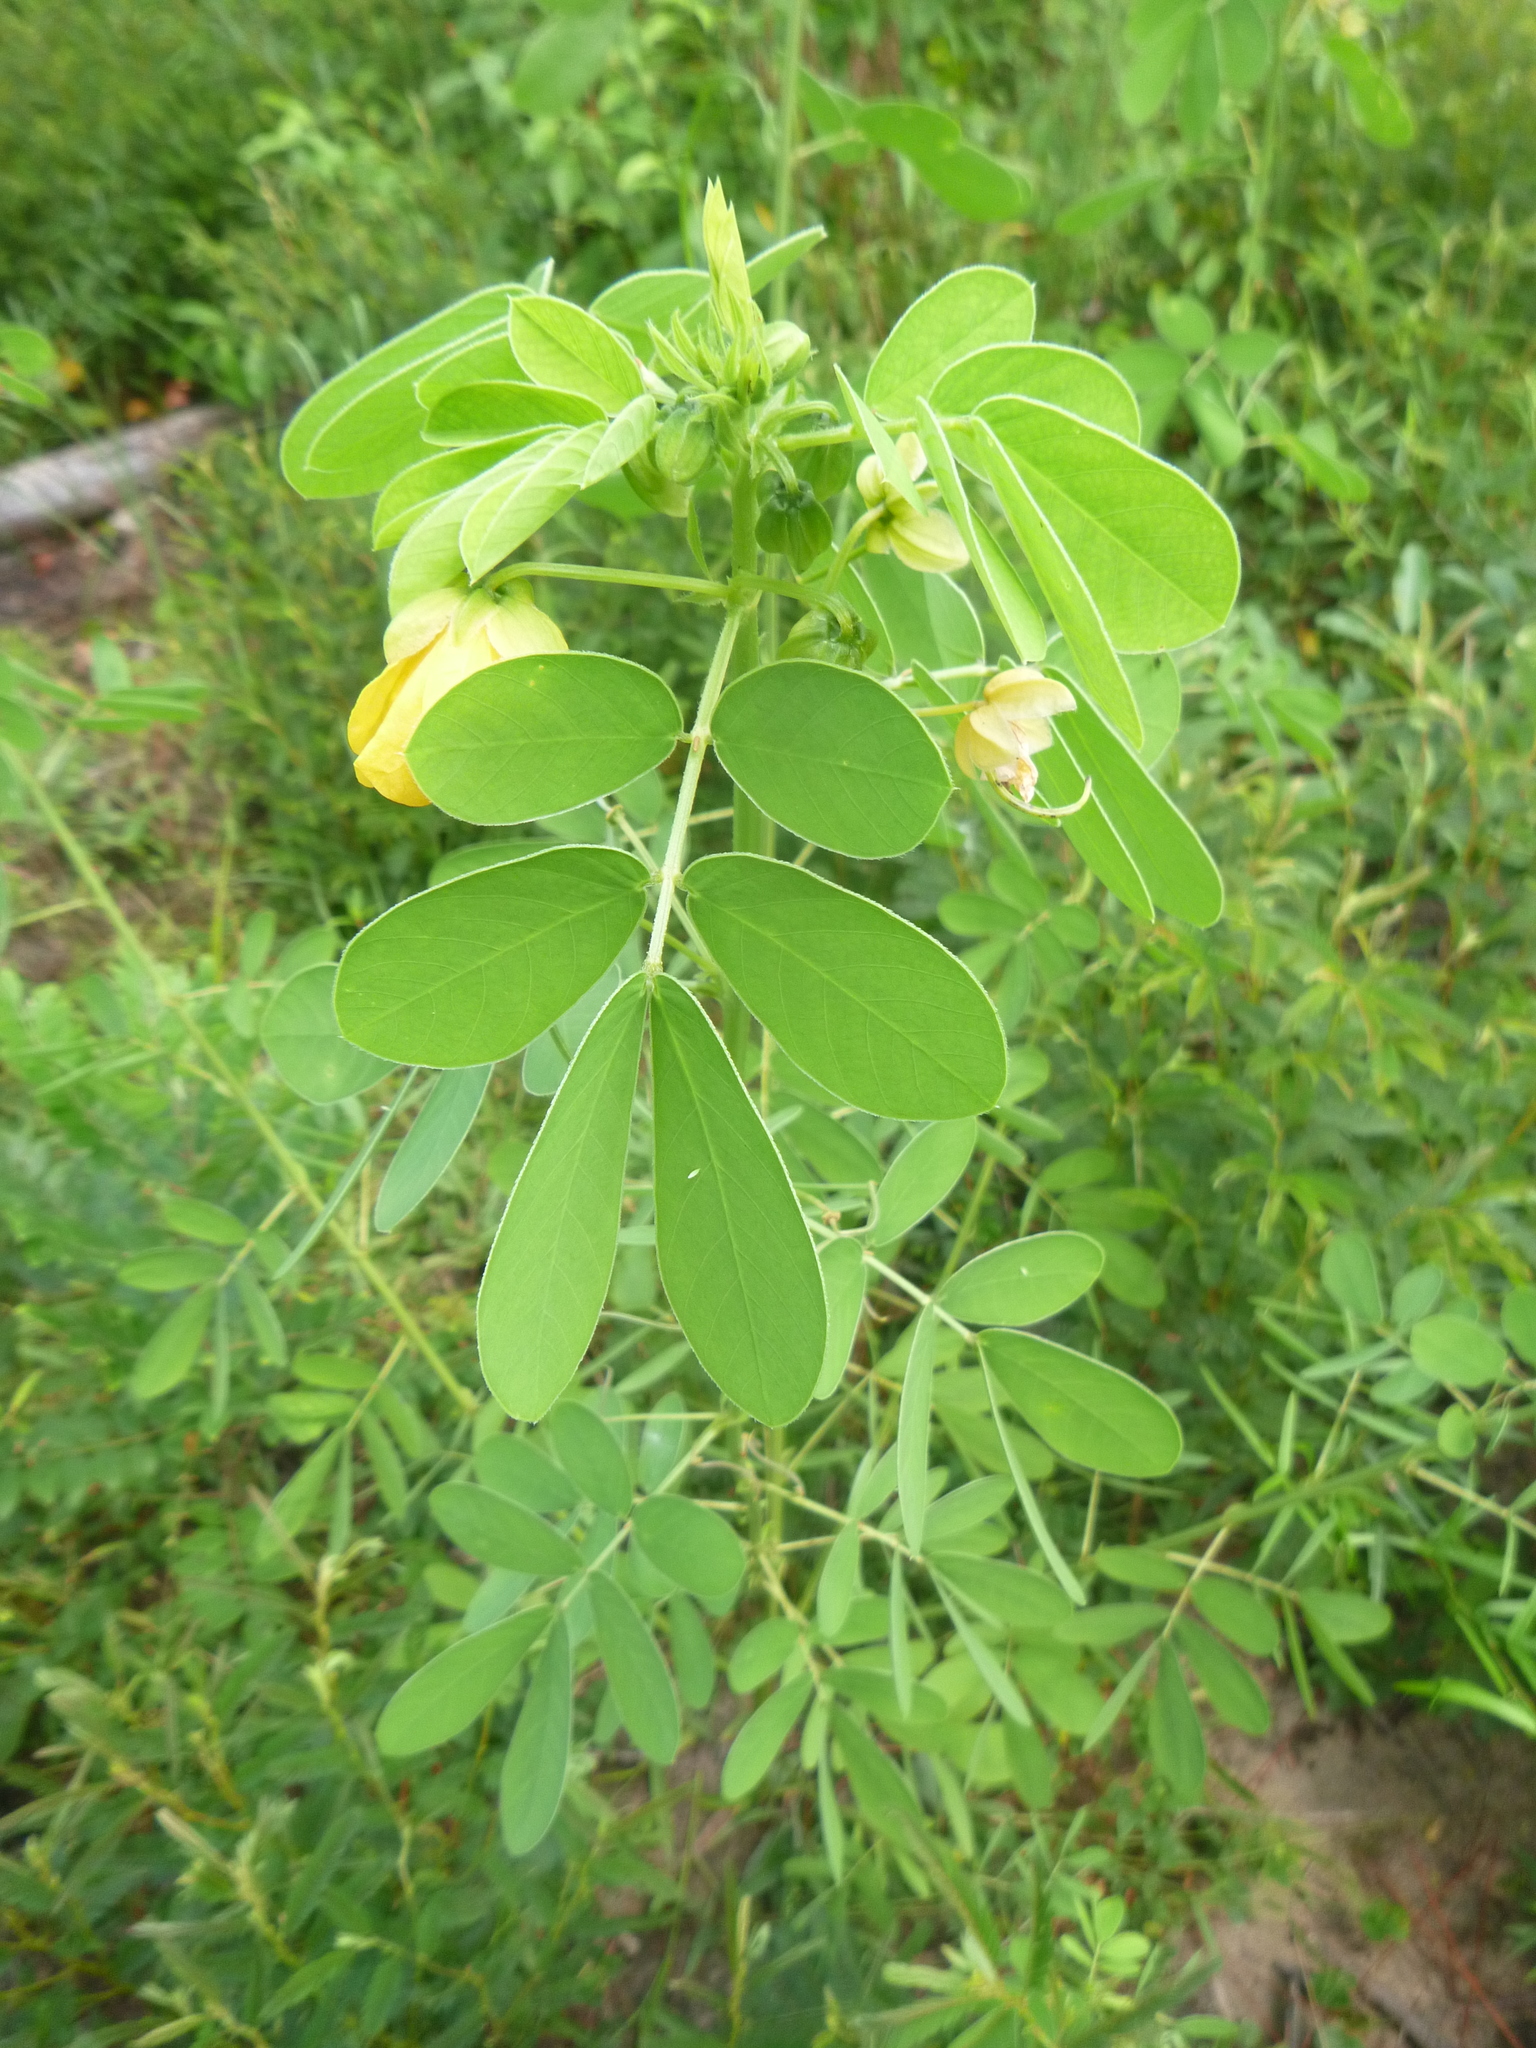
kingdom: Plantae
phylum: Tracheophyta
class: Magnoliopsida
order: Fabales
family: Fabaceae
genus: Senna
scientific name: Senna obtusifolia
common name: Java-bean
